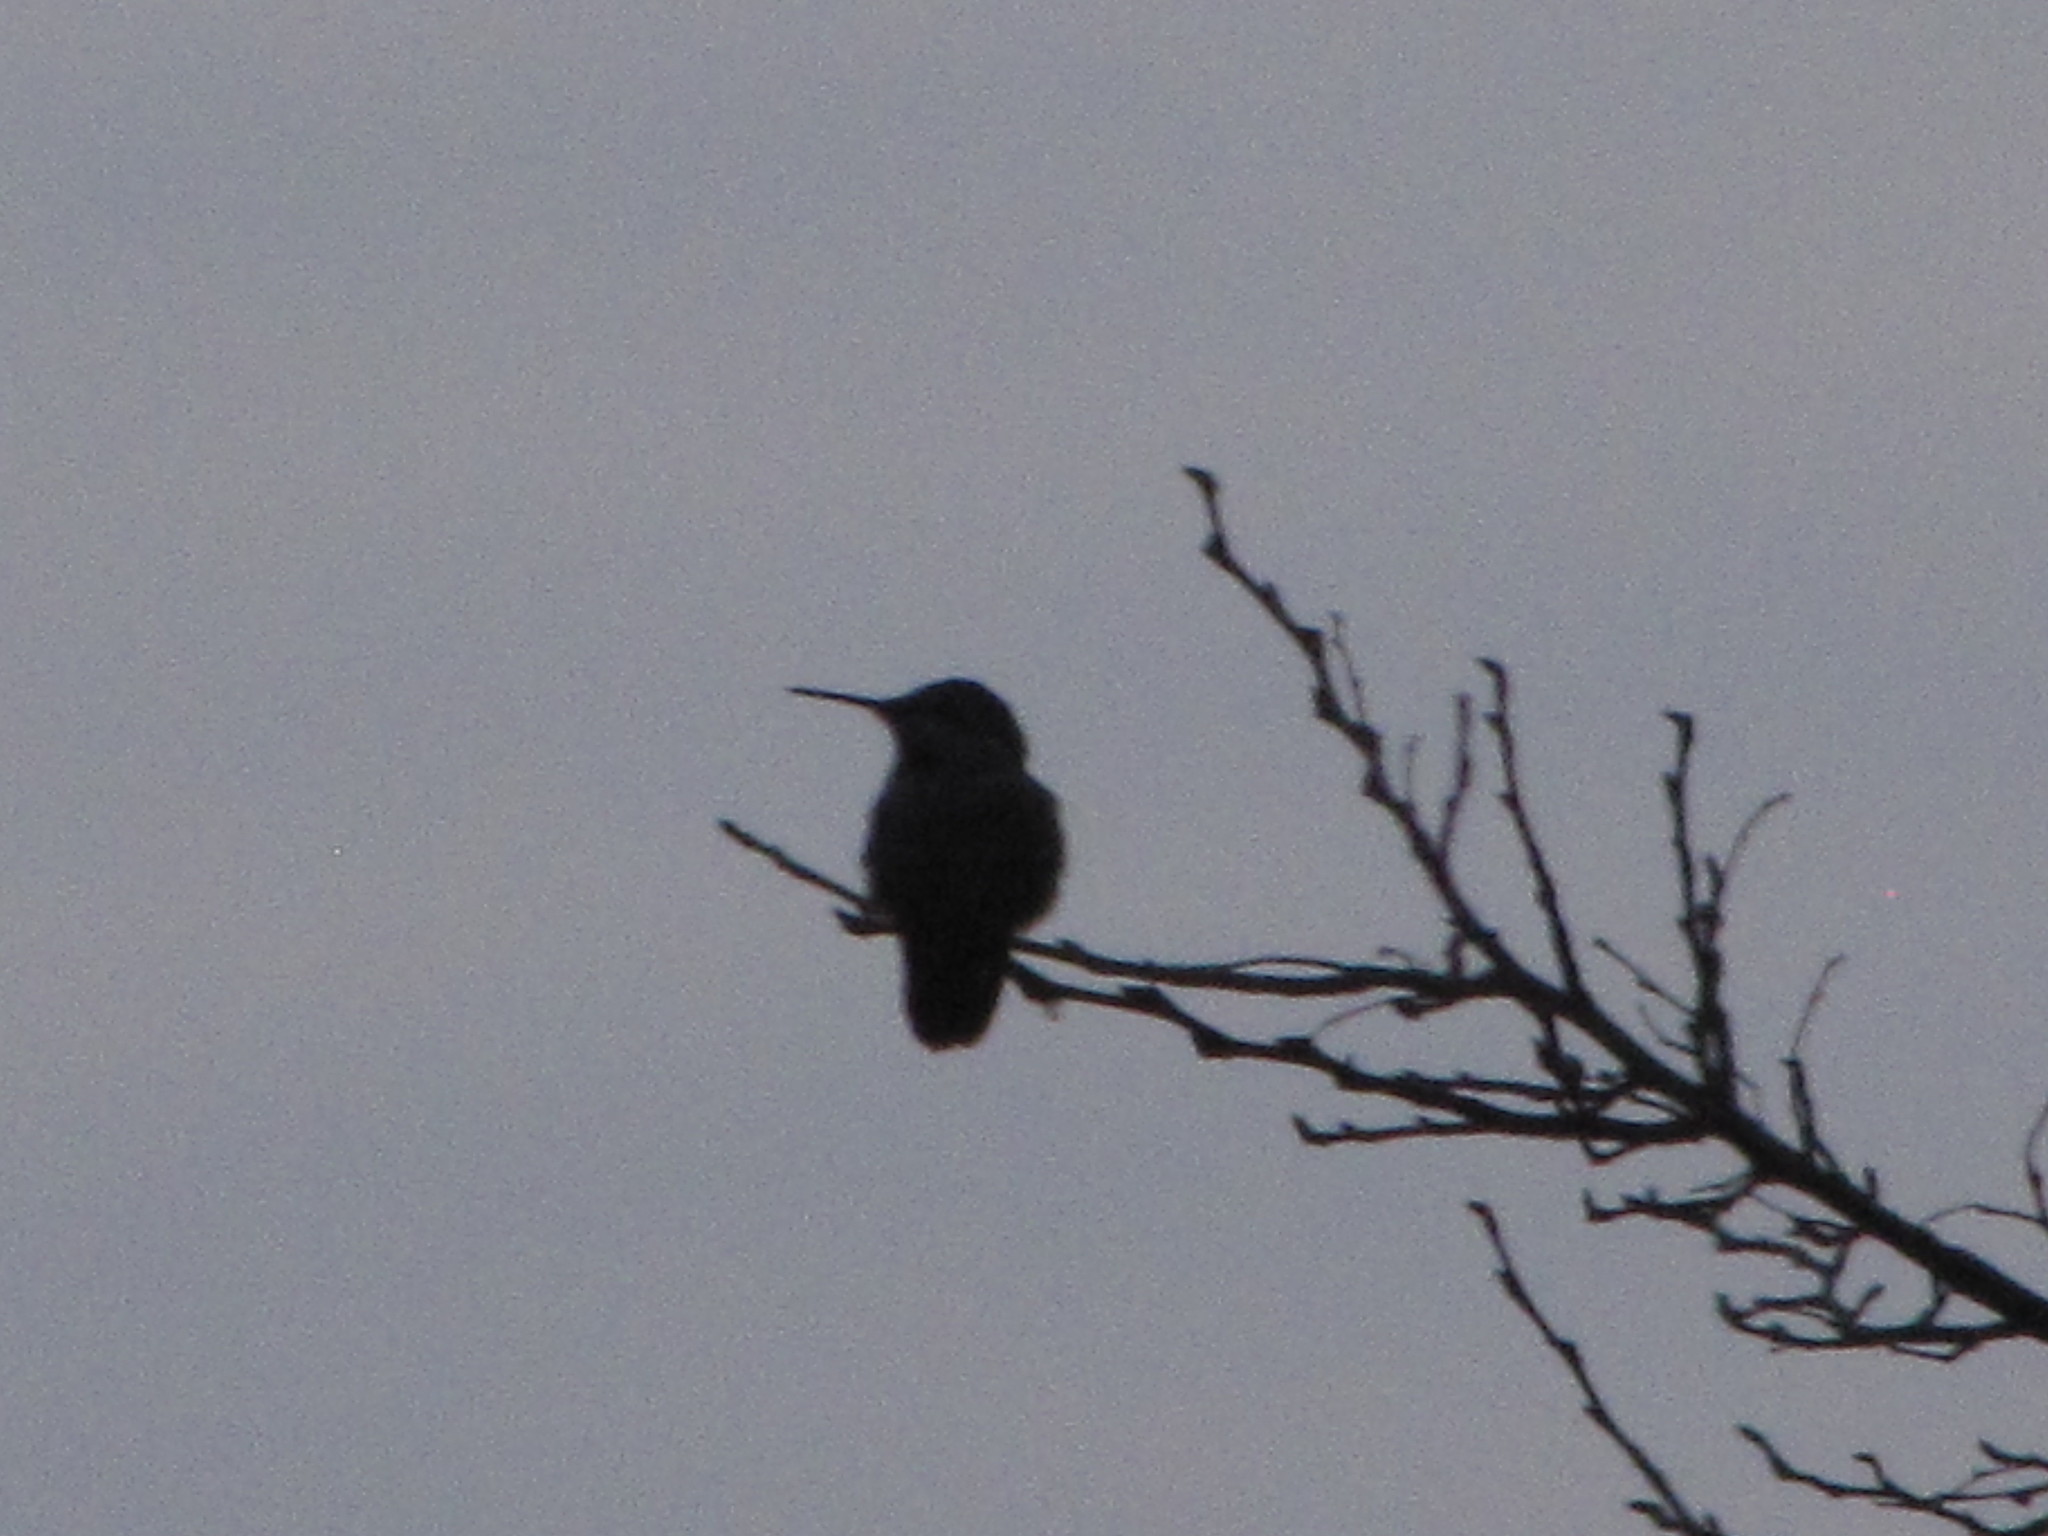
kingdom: Animalia
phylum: Chordata
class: Aves
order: Apodiformes
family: Trochilidae
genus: Calypte
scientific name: Calypte anna
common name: Anna's hummingbird
